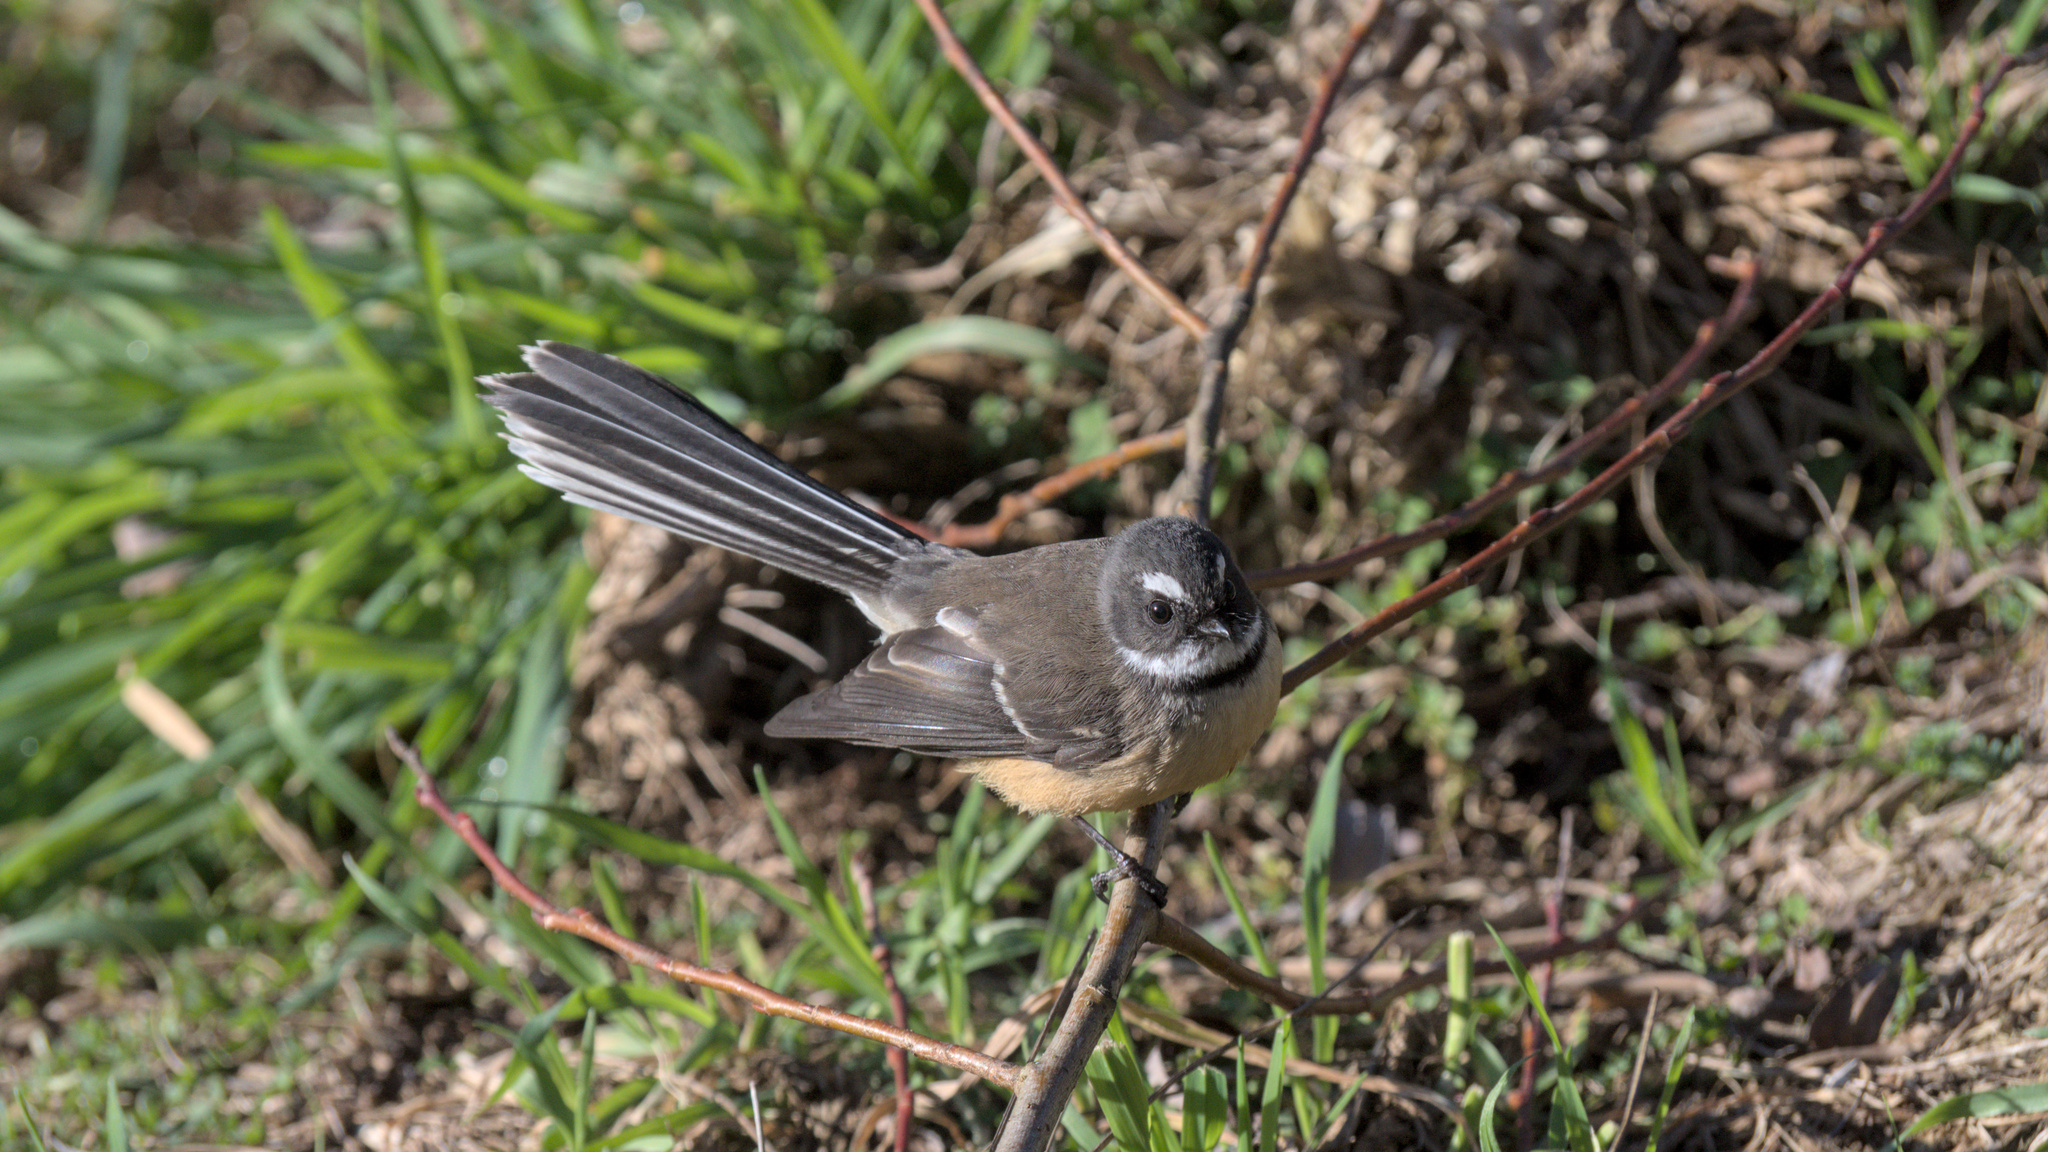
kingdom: Animalia
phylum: Chordata
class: Aves
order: Passeriformes
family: Rhipiduridae
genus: Rhipidura
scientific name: Rhipidura fuliginosa
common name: New zealand fantail
